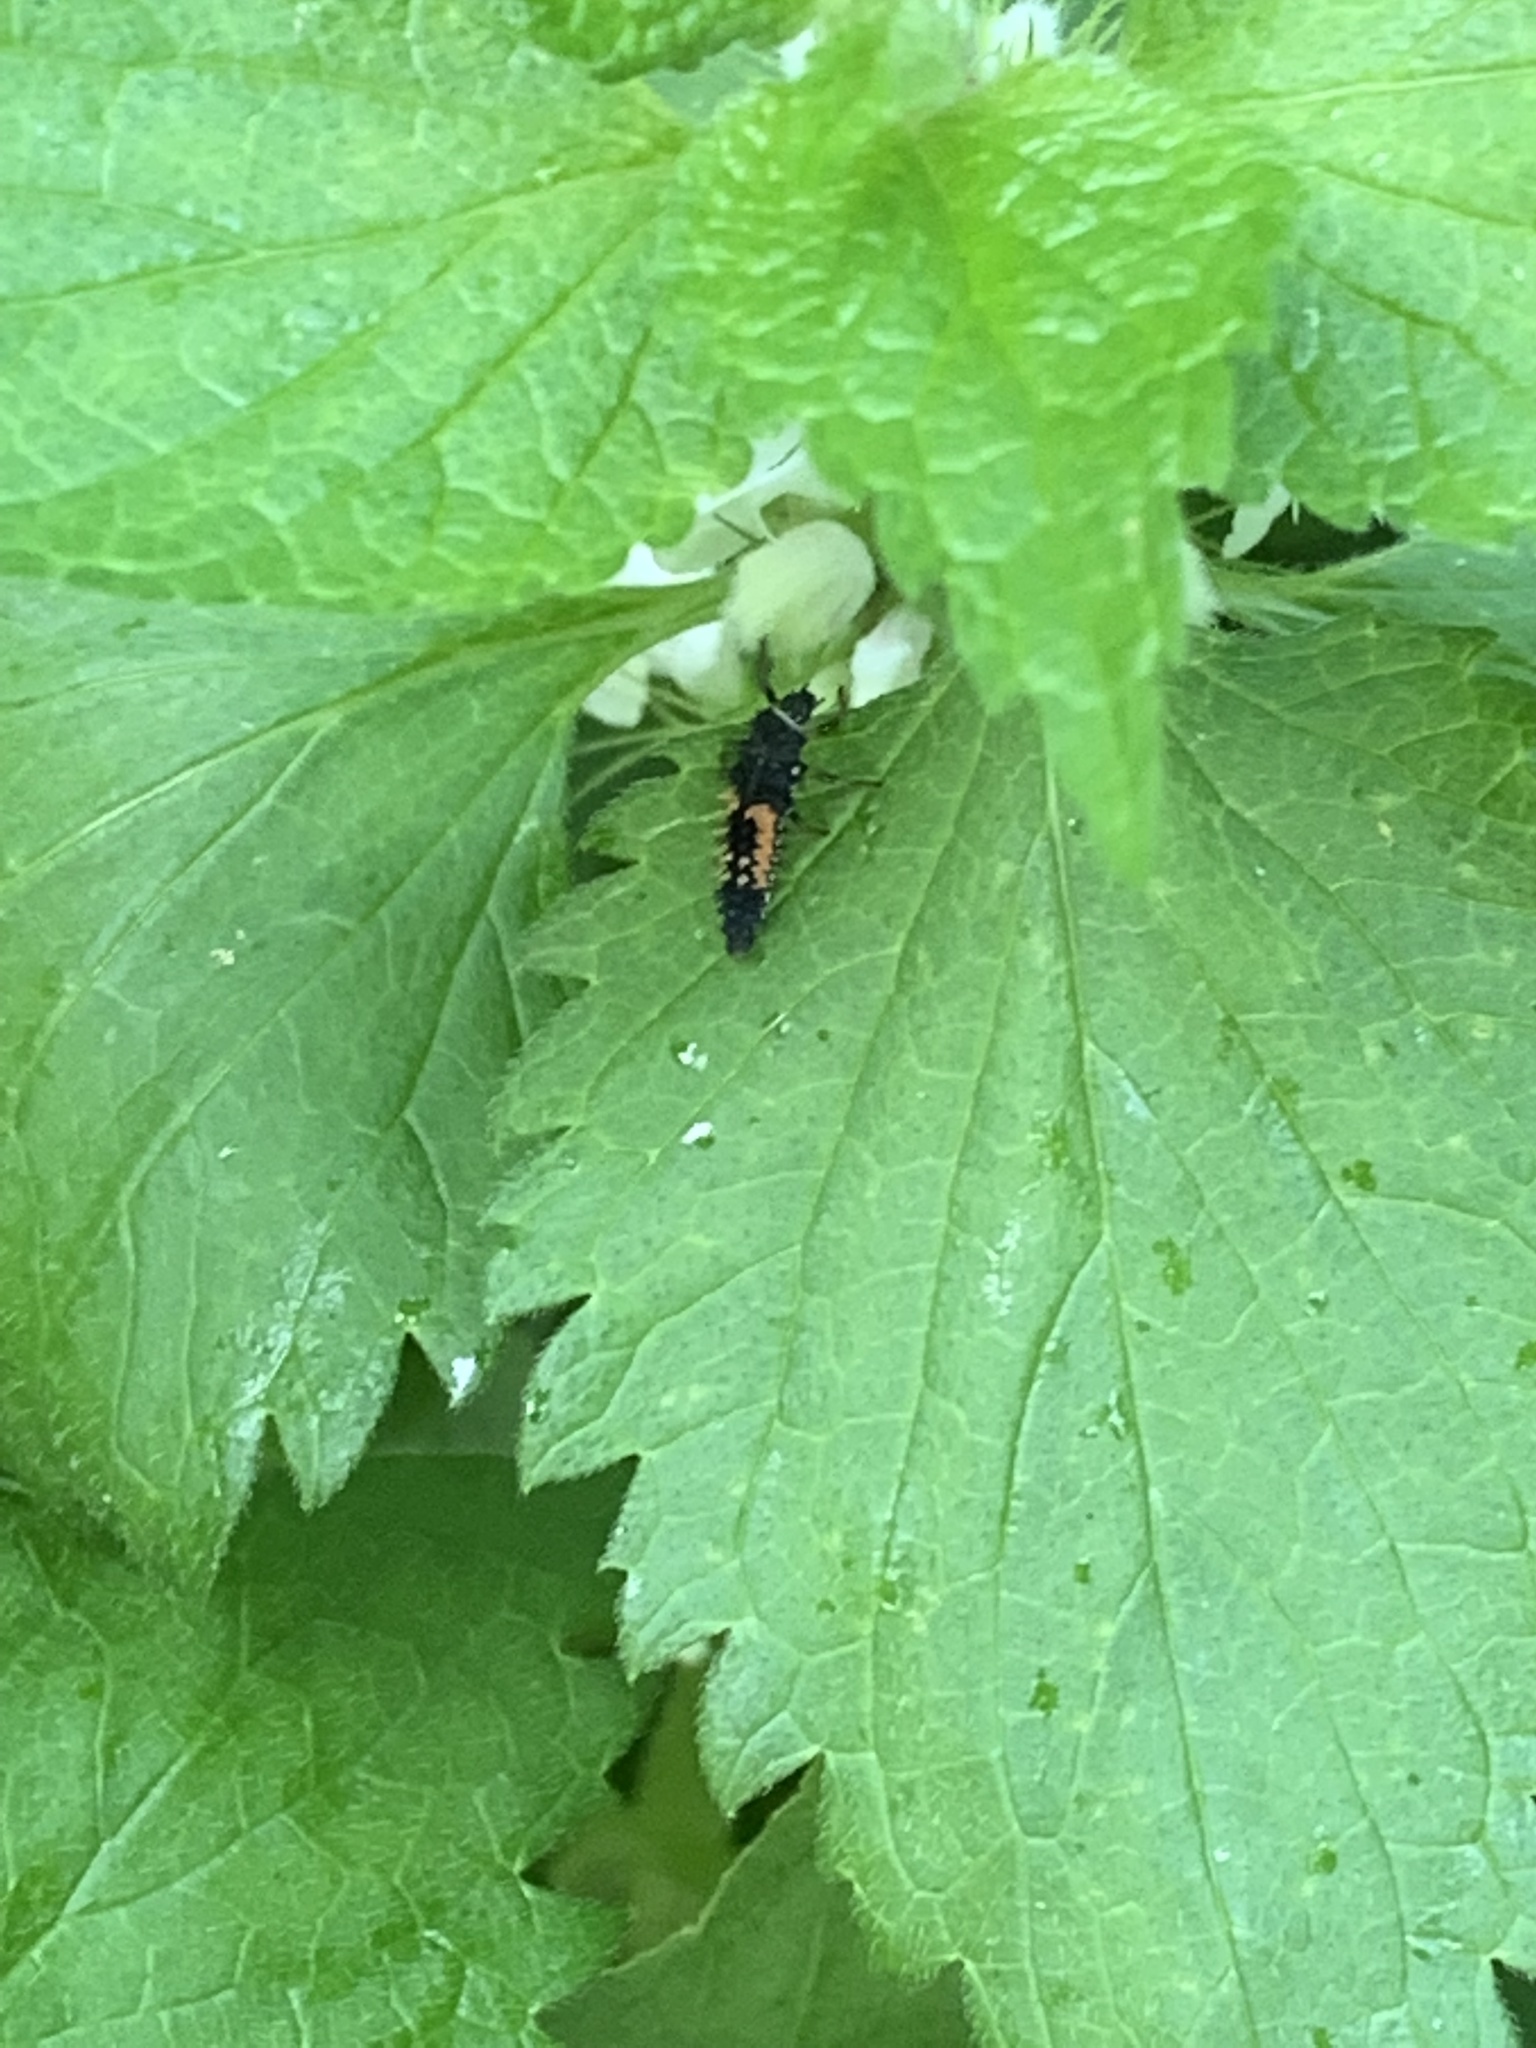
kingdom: Animalia
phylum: Arthropoda
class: Insecta
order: Coleoptera
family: Coccinellidae
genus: Harmonia
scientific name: Harmonia axyridis
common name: Harlequin ladybird
